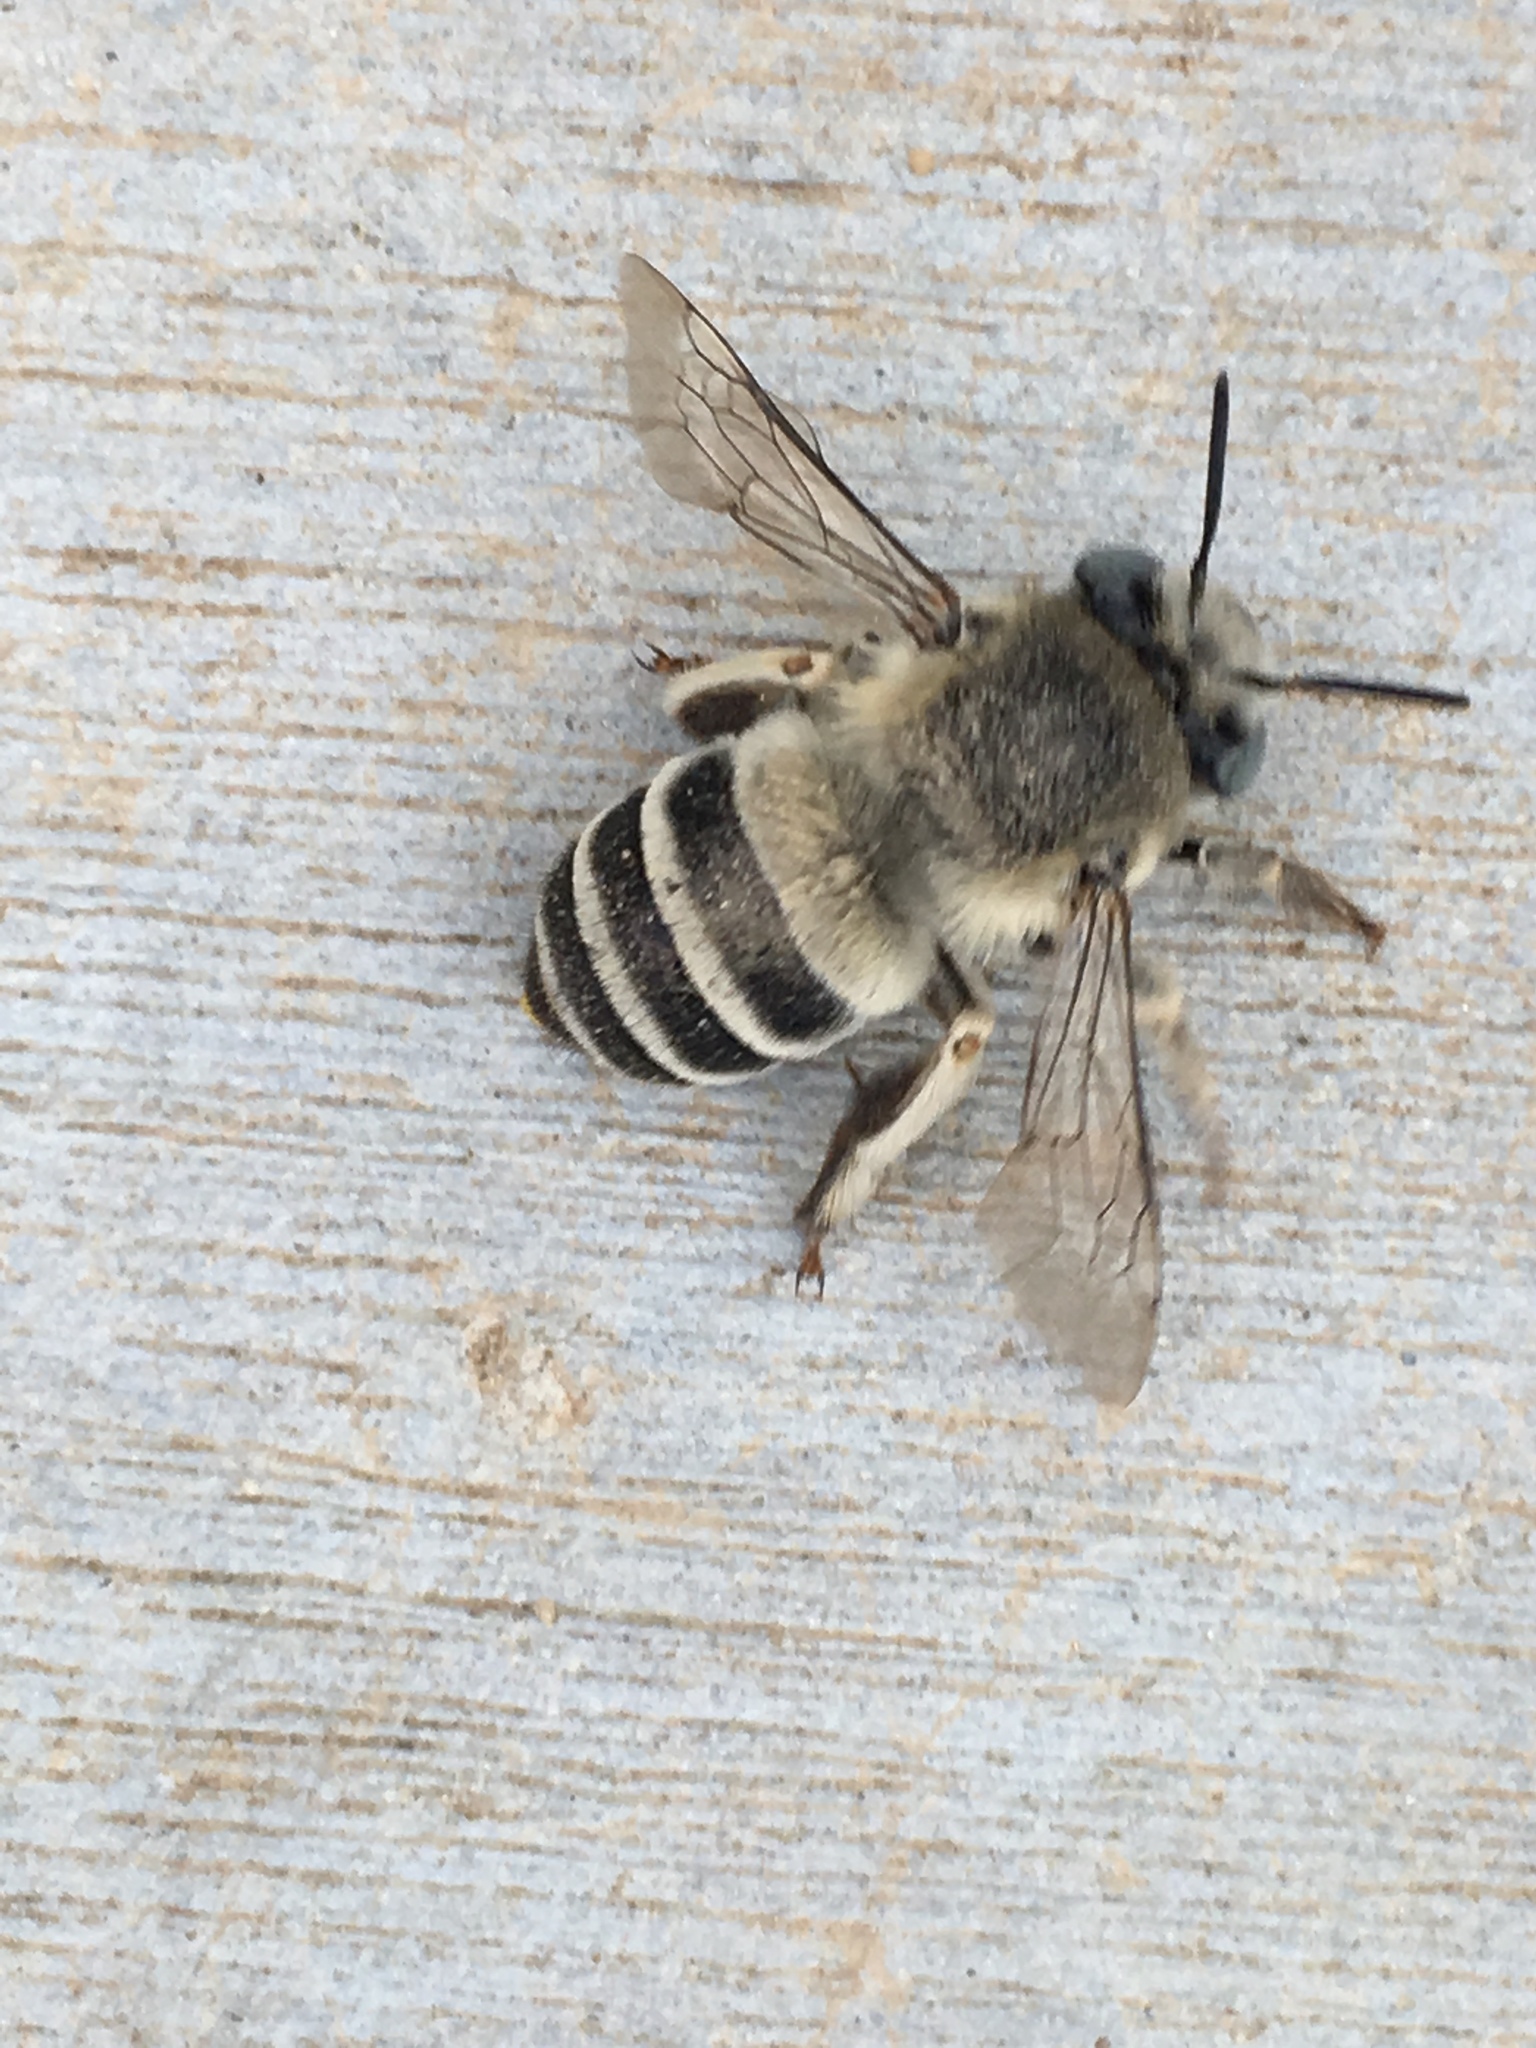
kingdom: Animalia
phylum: Arthropoda
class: Insecta
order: Hymenoptera
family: Apidae
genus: Anthophora
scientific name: Anthophora urbana
